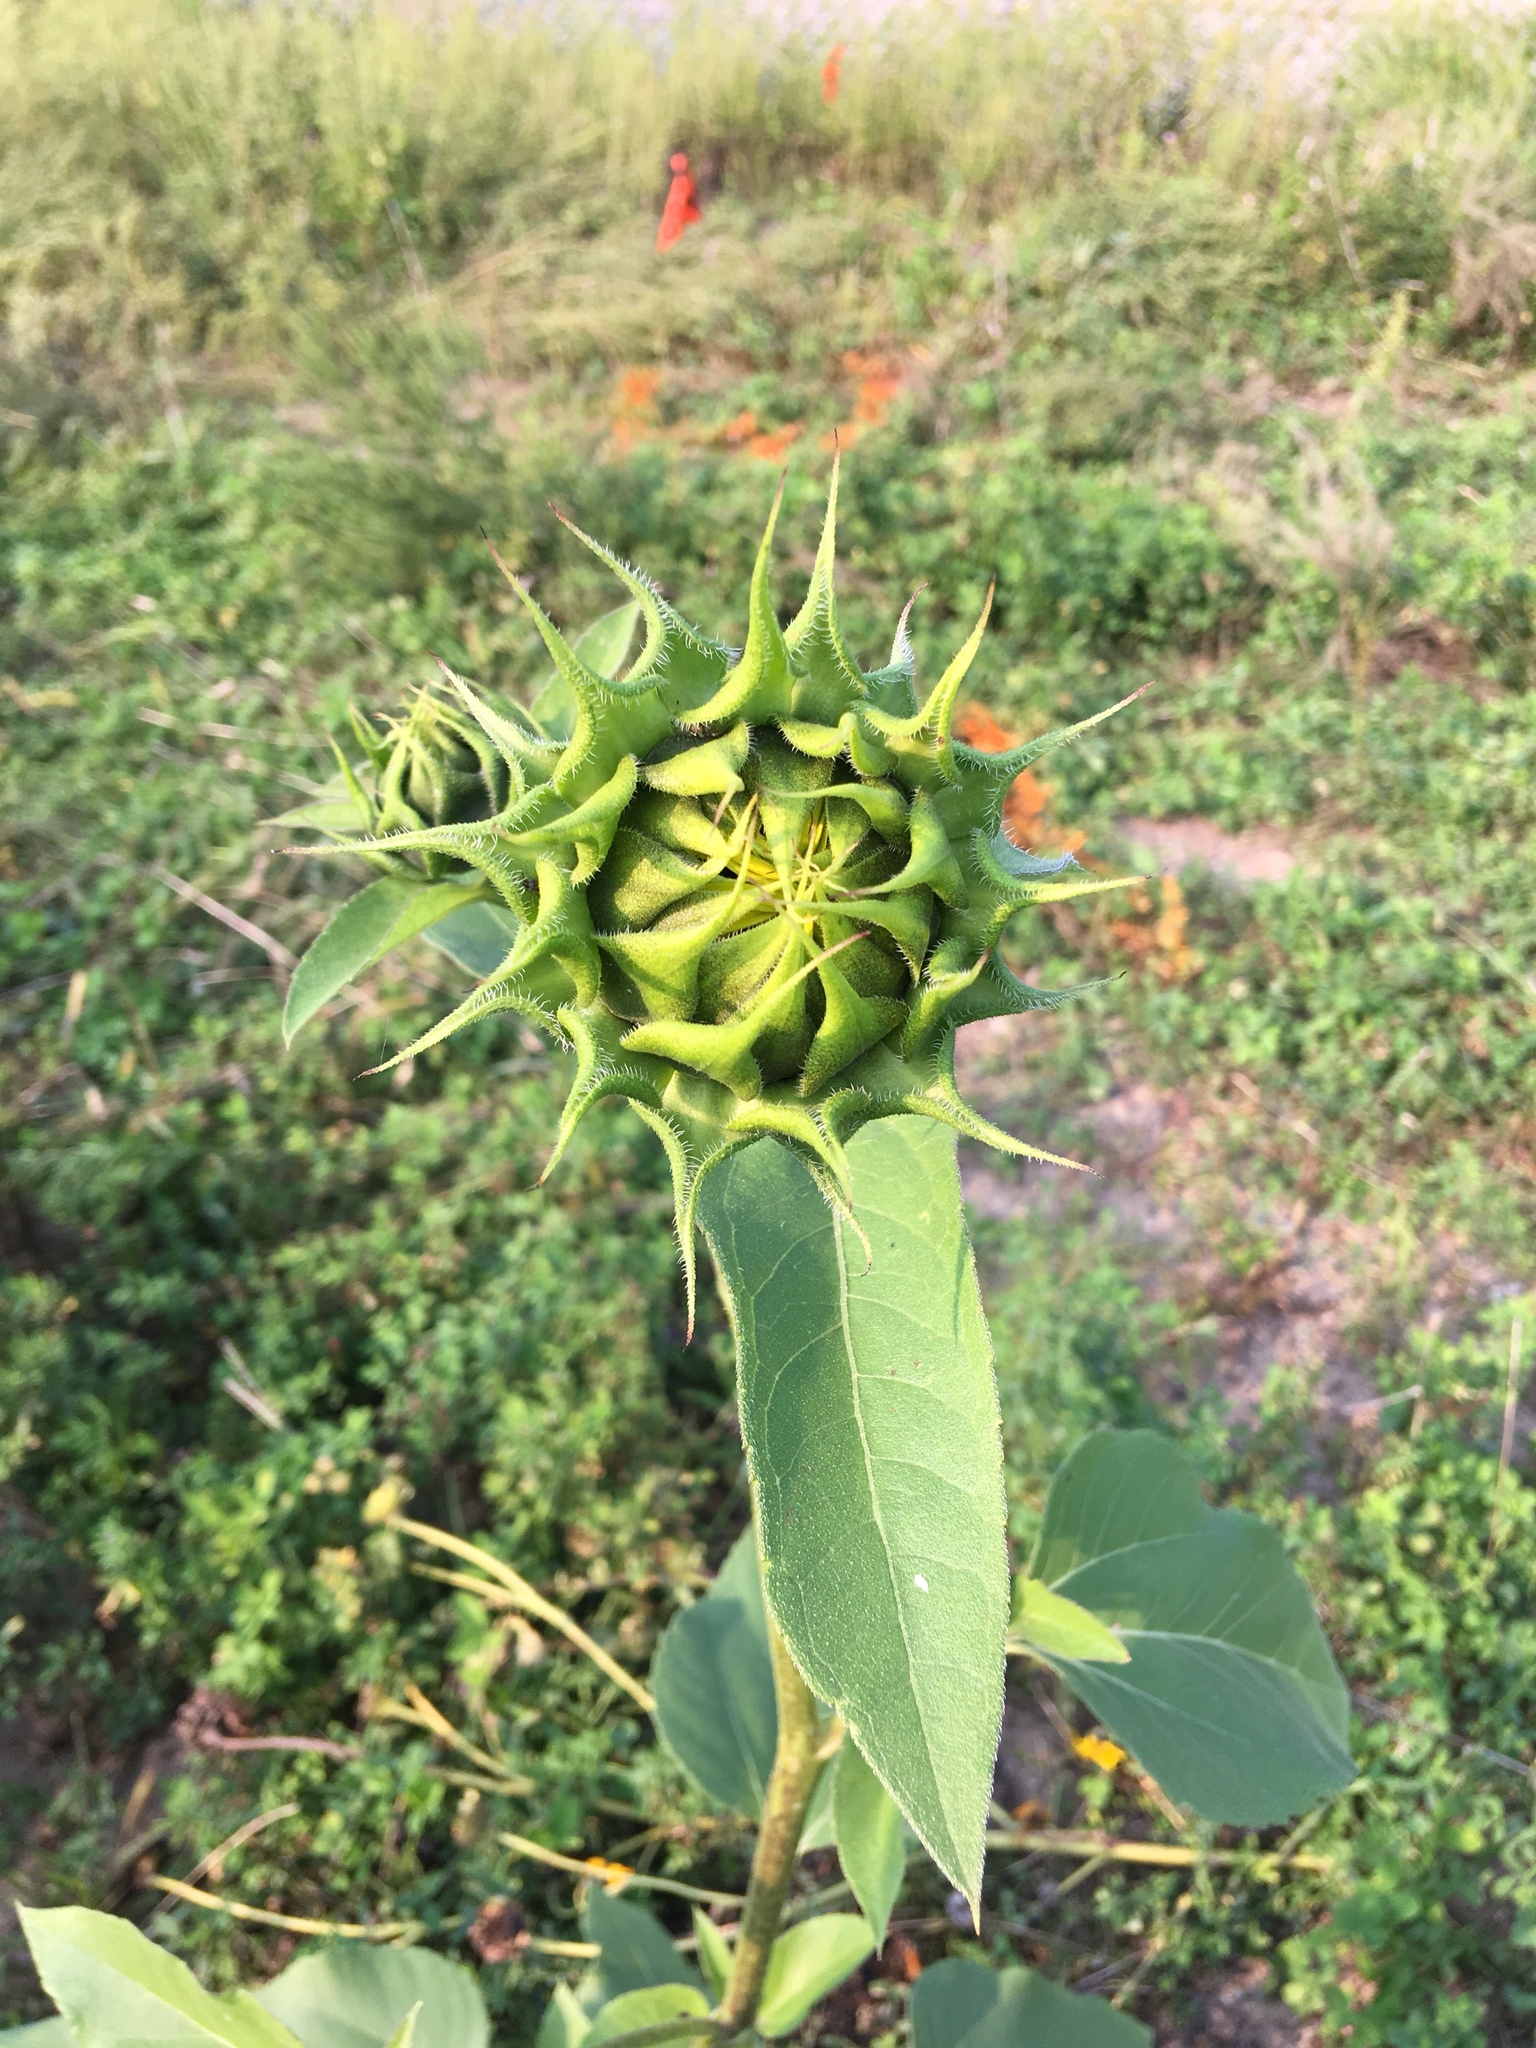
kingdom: Plantae
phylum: Tracheophyta
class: Magnoliopsida
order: Asterales
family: Asteraceae
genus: Helianthus
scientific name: Helianthus annuus
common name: Sunflower
